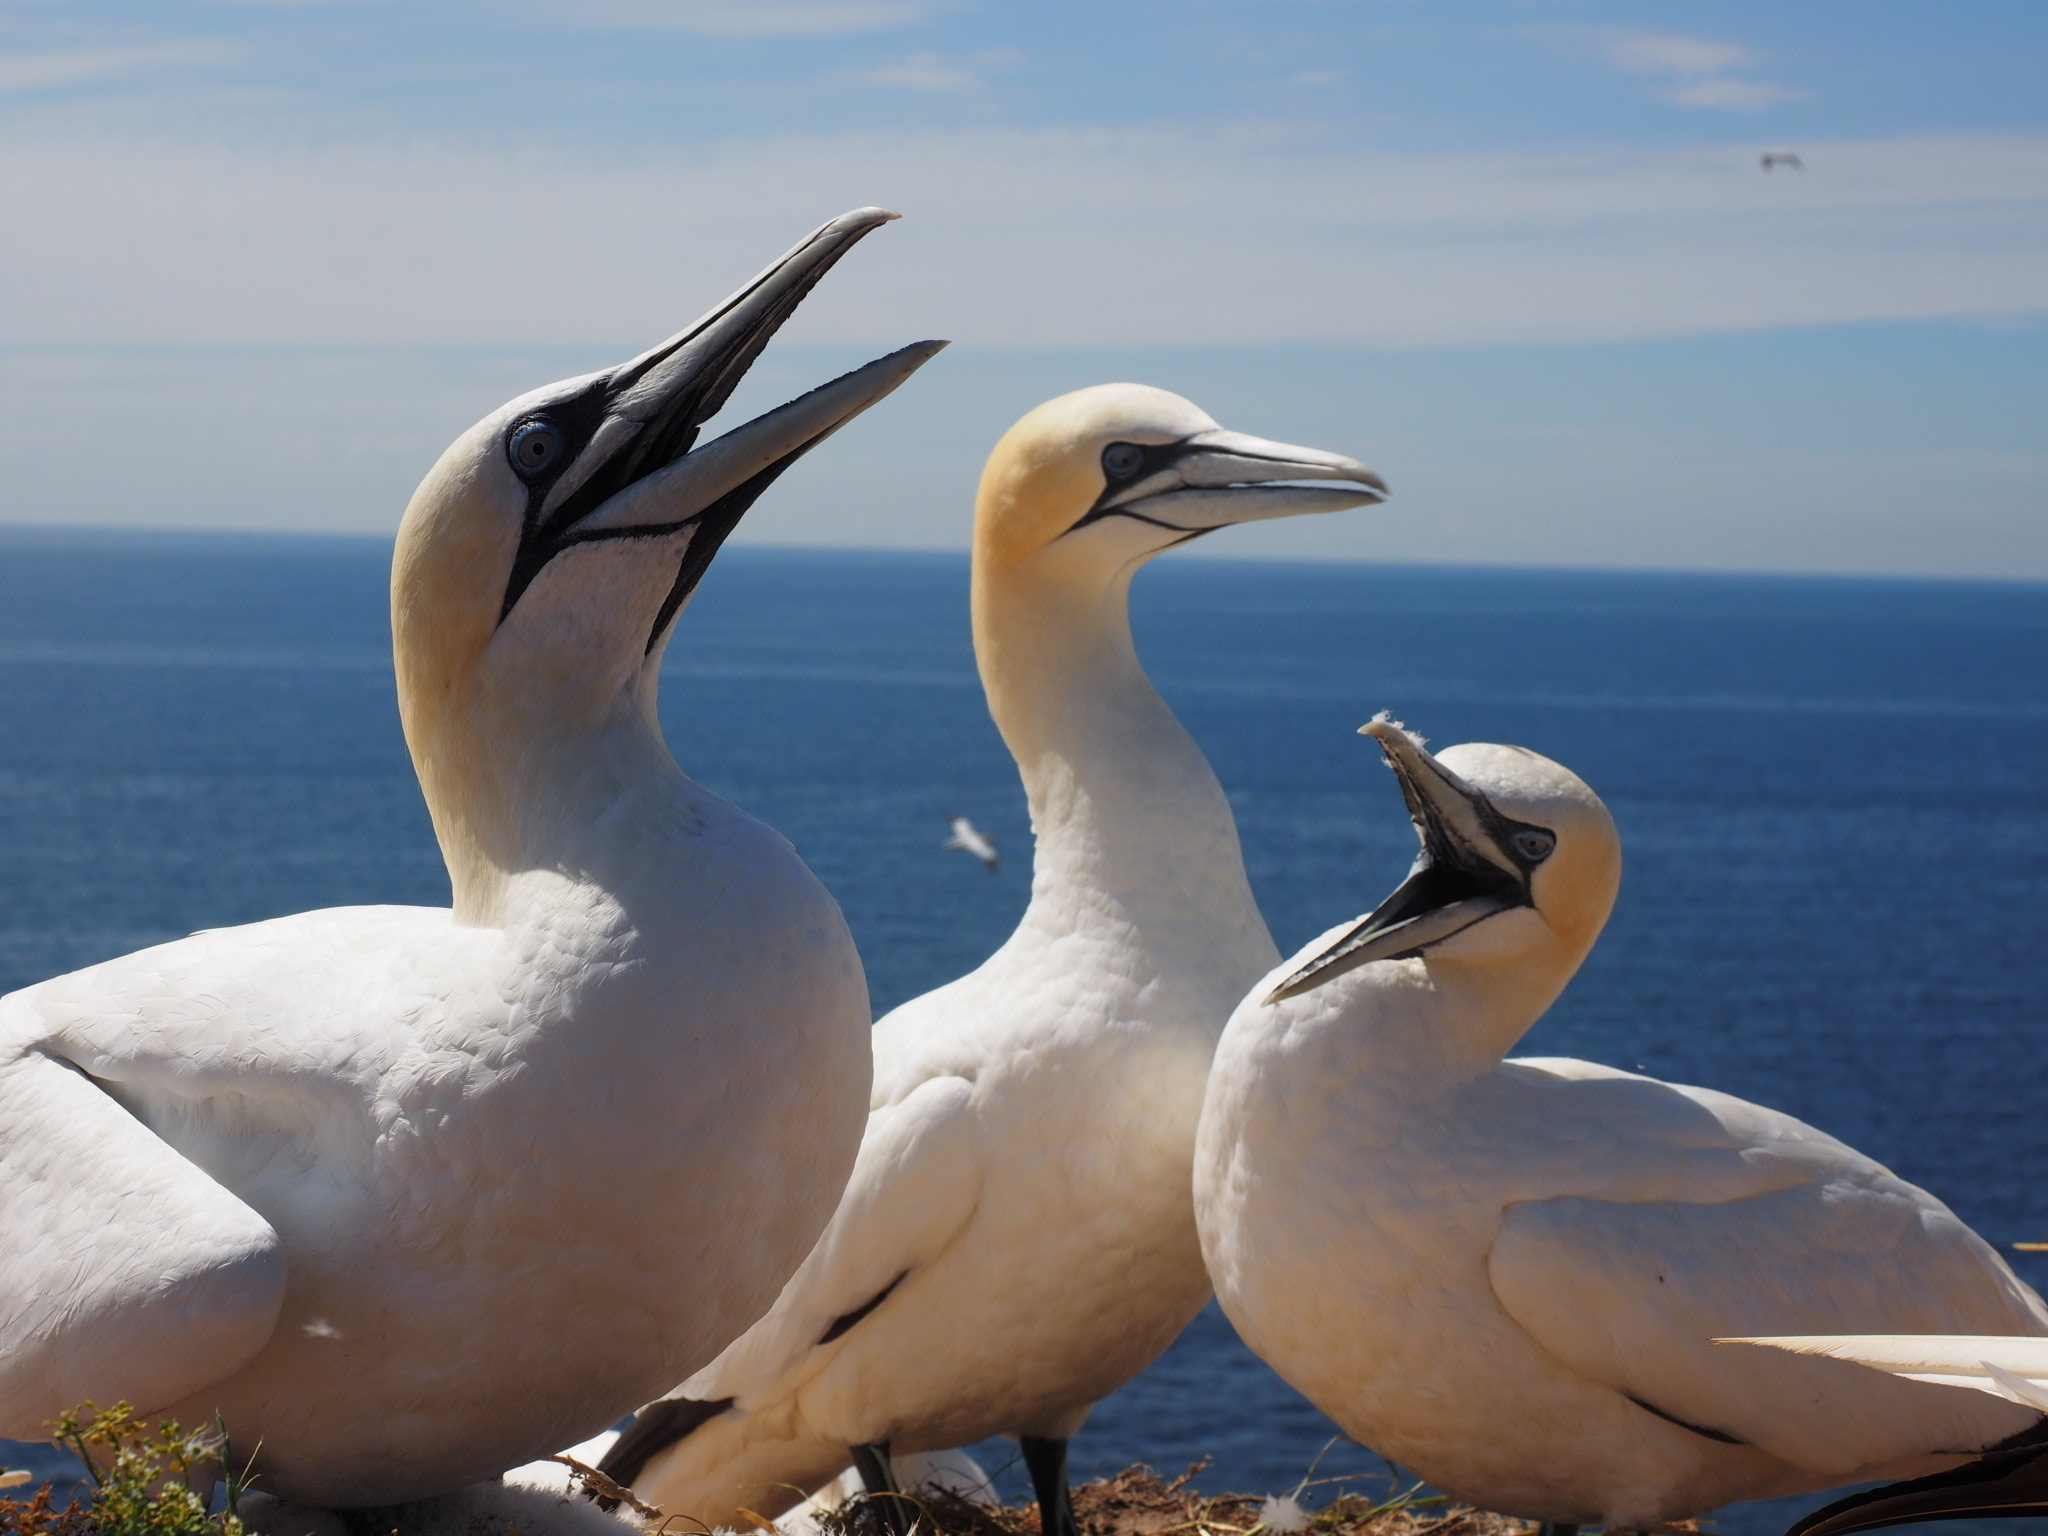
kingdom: Animalia
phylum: Chordata
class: Aves
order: Suliformes
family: Sulidae
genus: Morus
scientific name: Morus bassanus
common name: Northern gannet
